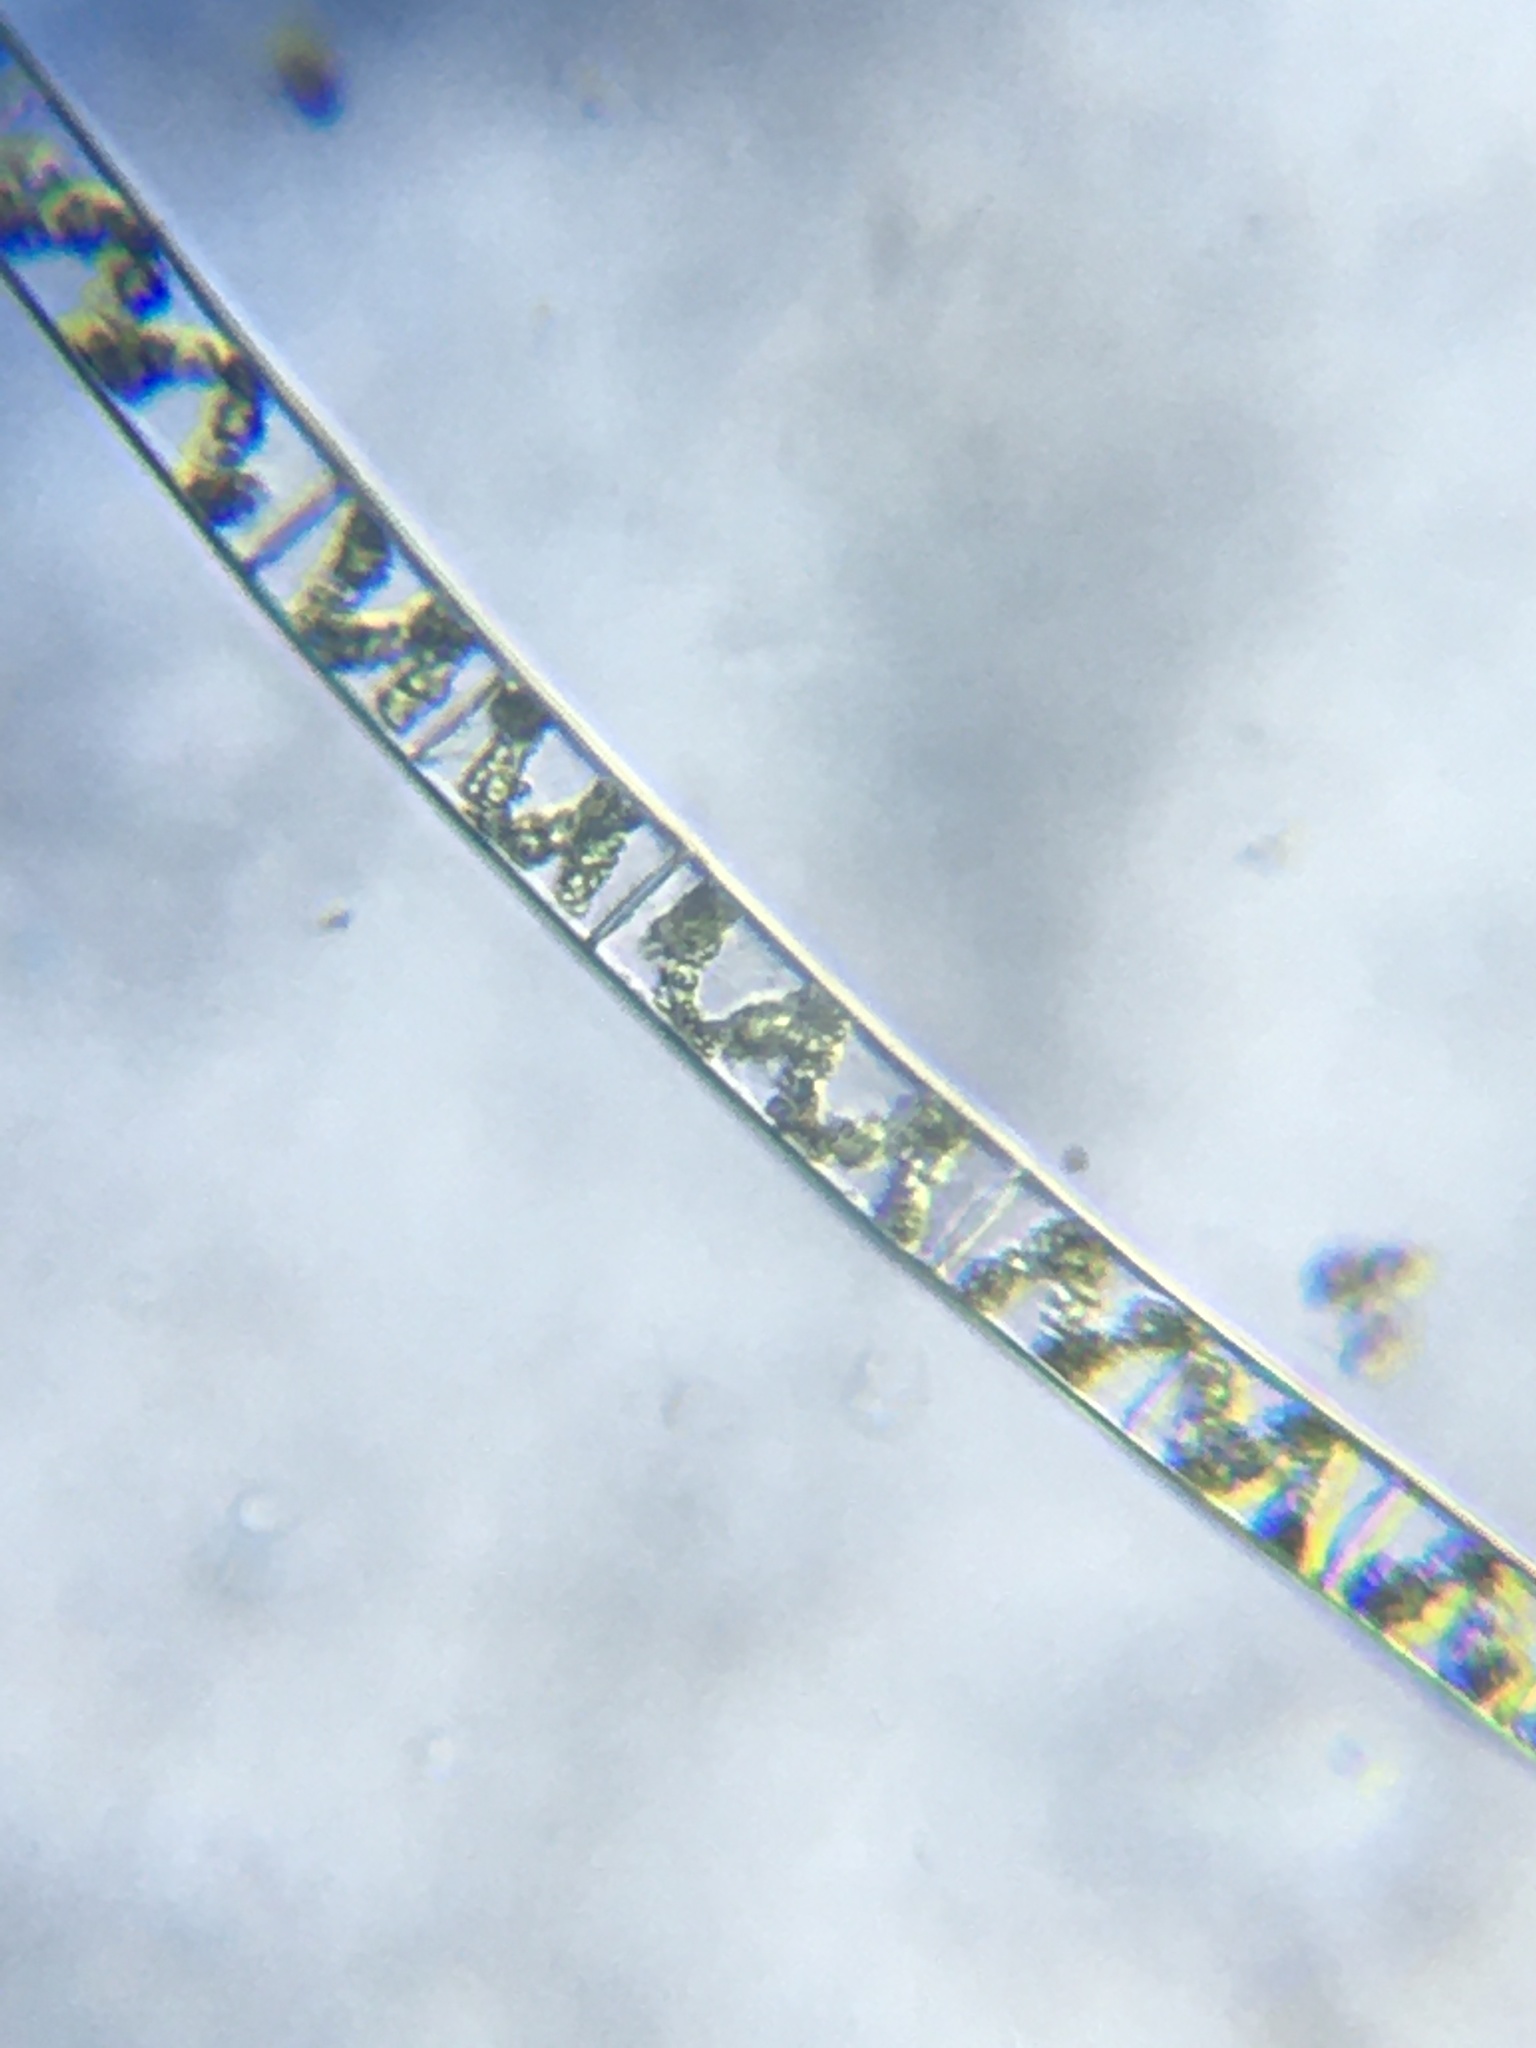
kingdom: Plantae
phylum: Charophyta
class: Zygnematophyceae
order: Zygnematales
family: Zygnemataceae
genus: Spirogyra
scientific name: Spirogyra
